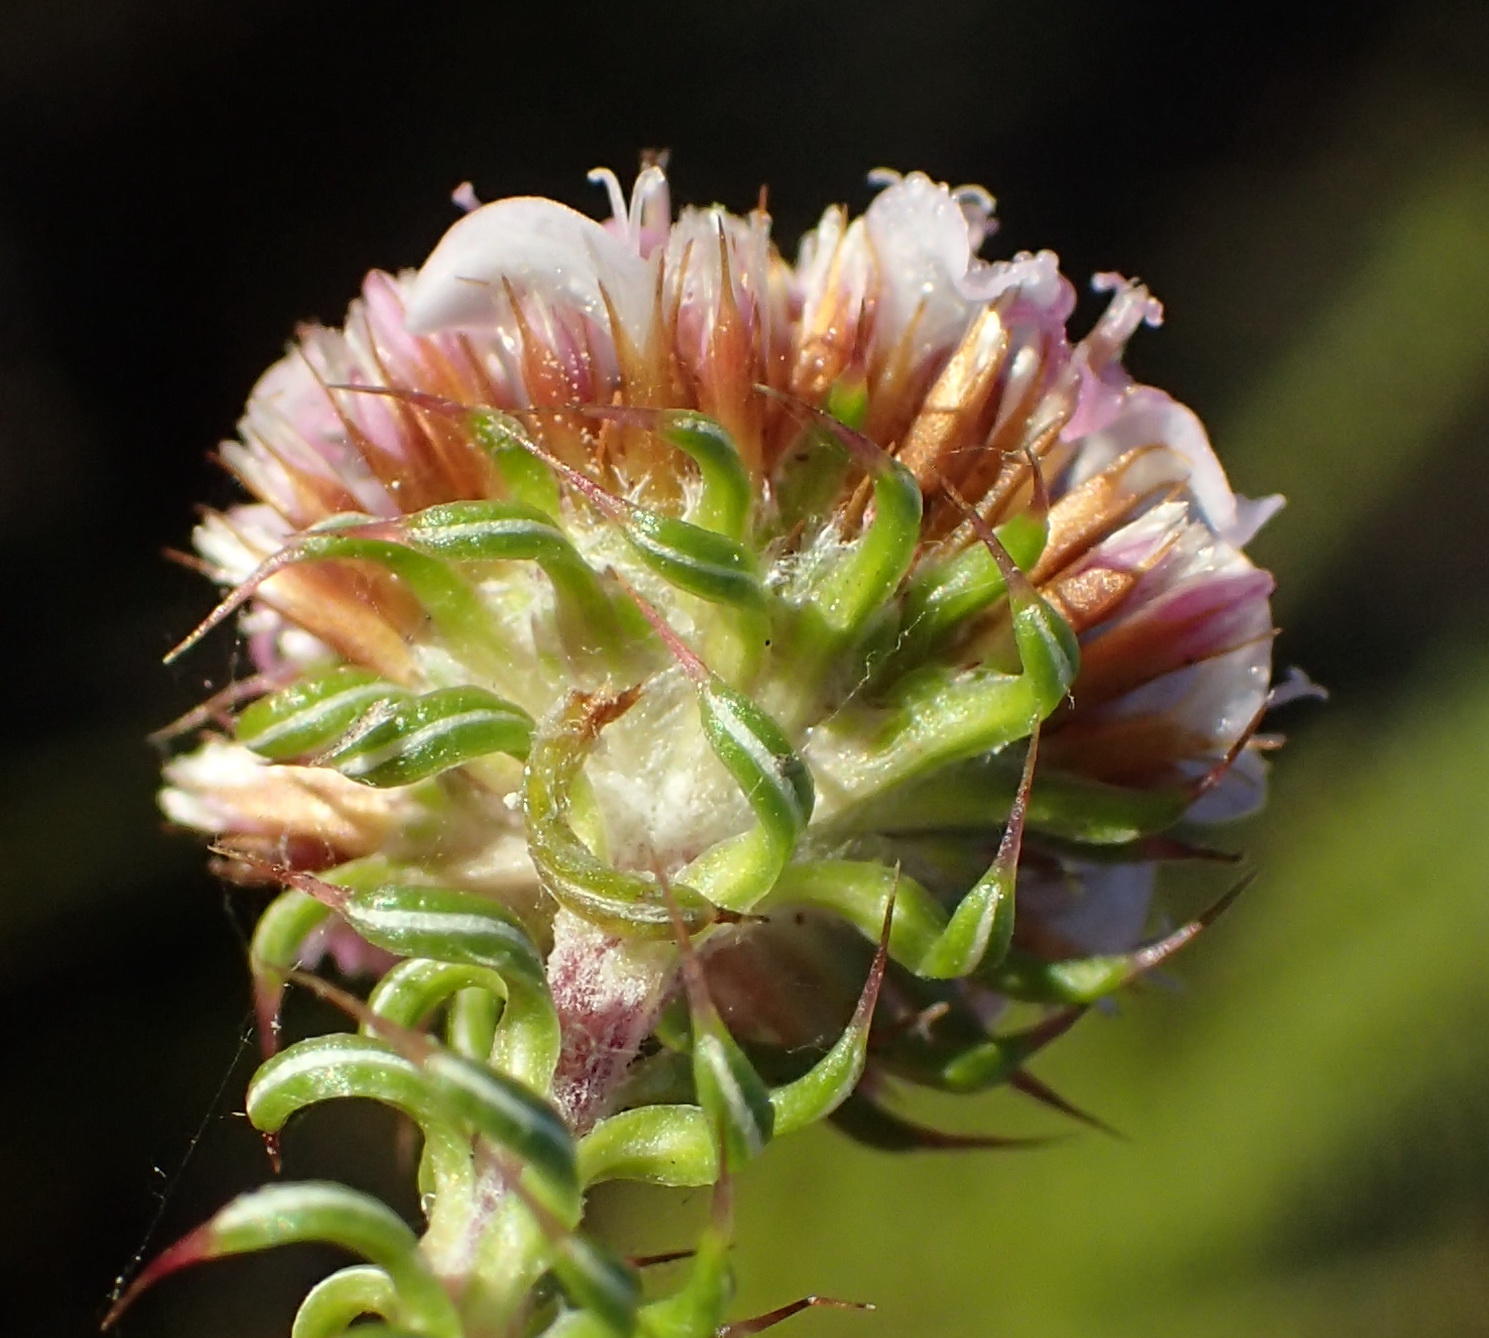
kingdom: Plantae
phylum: Tracheophyta
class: Magnoliopsida
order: Asterales
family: Asteraceae
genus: Disparago
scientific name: Disparago ericoides
